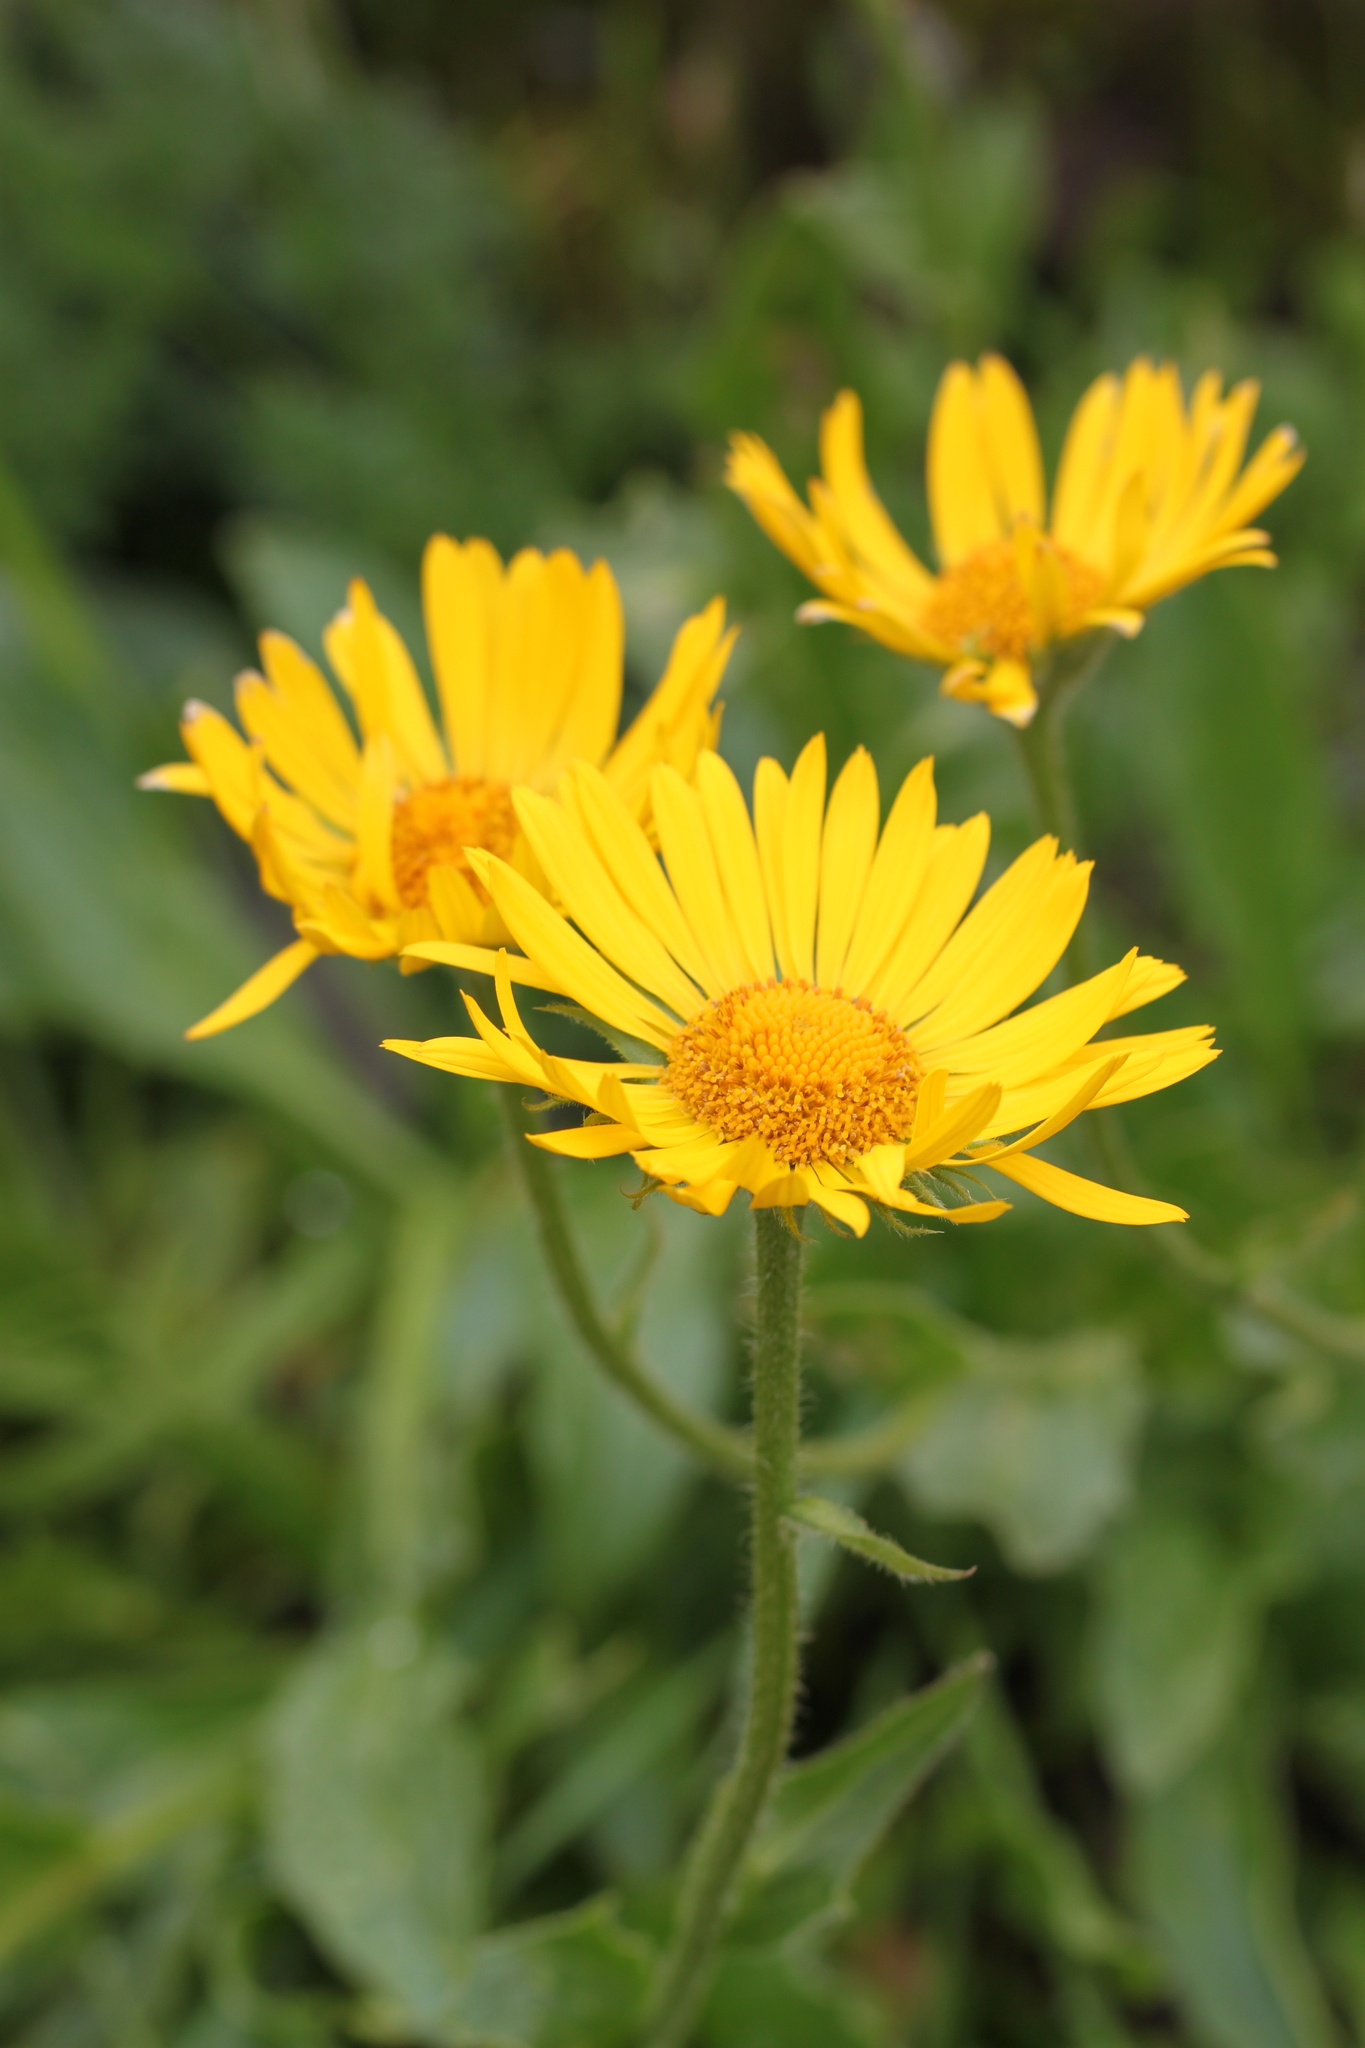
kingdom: Plantae
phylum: Tracheophyta
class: Magnoliopsida
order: Asterales
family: Asteraceae
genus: Doronicum
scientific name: Doronicum grandiflorum
